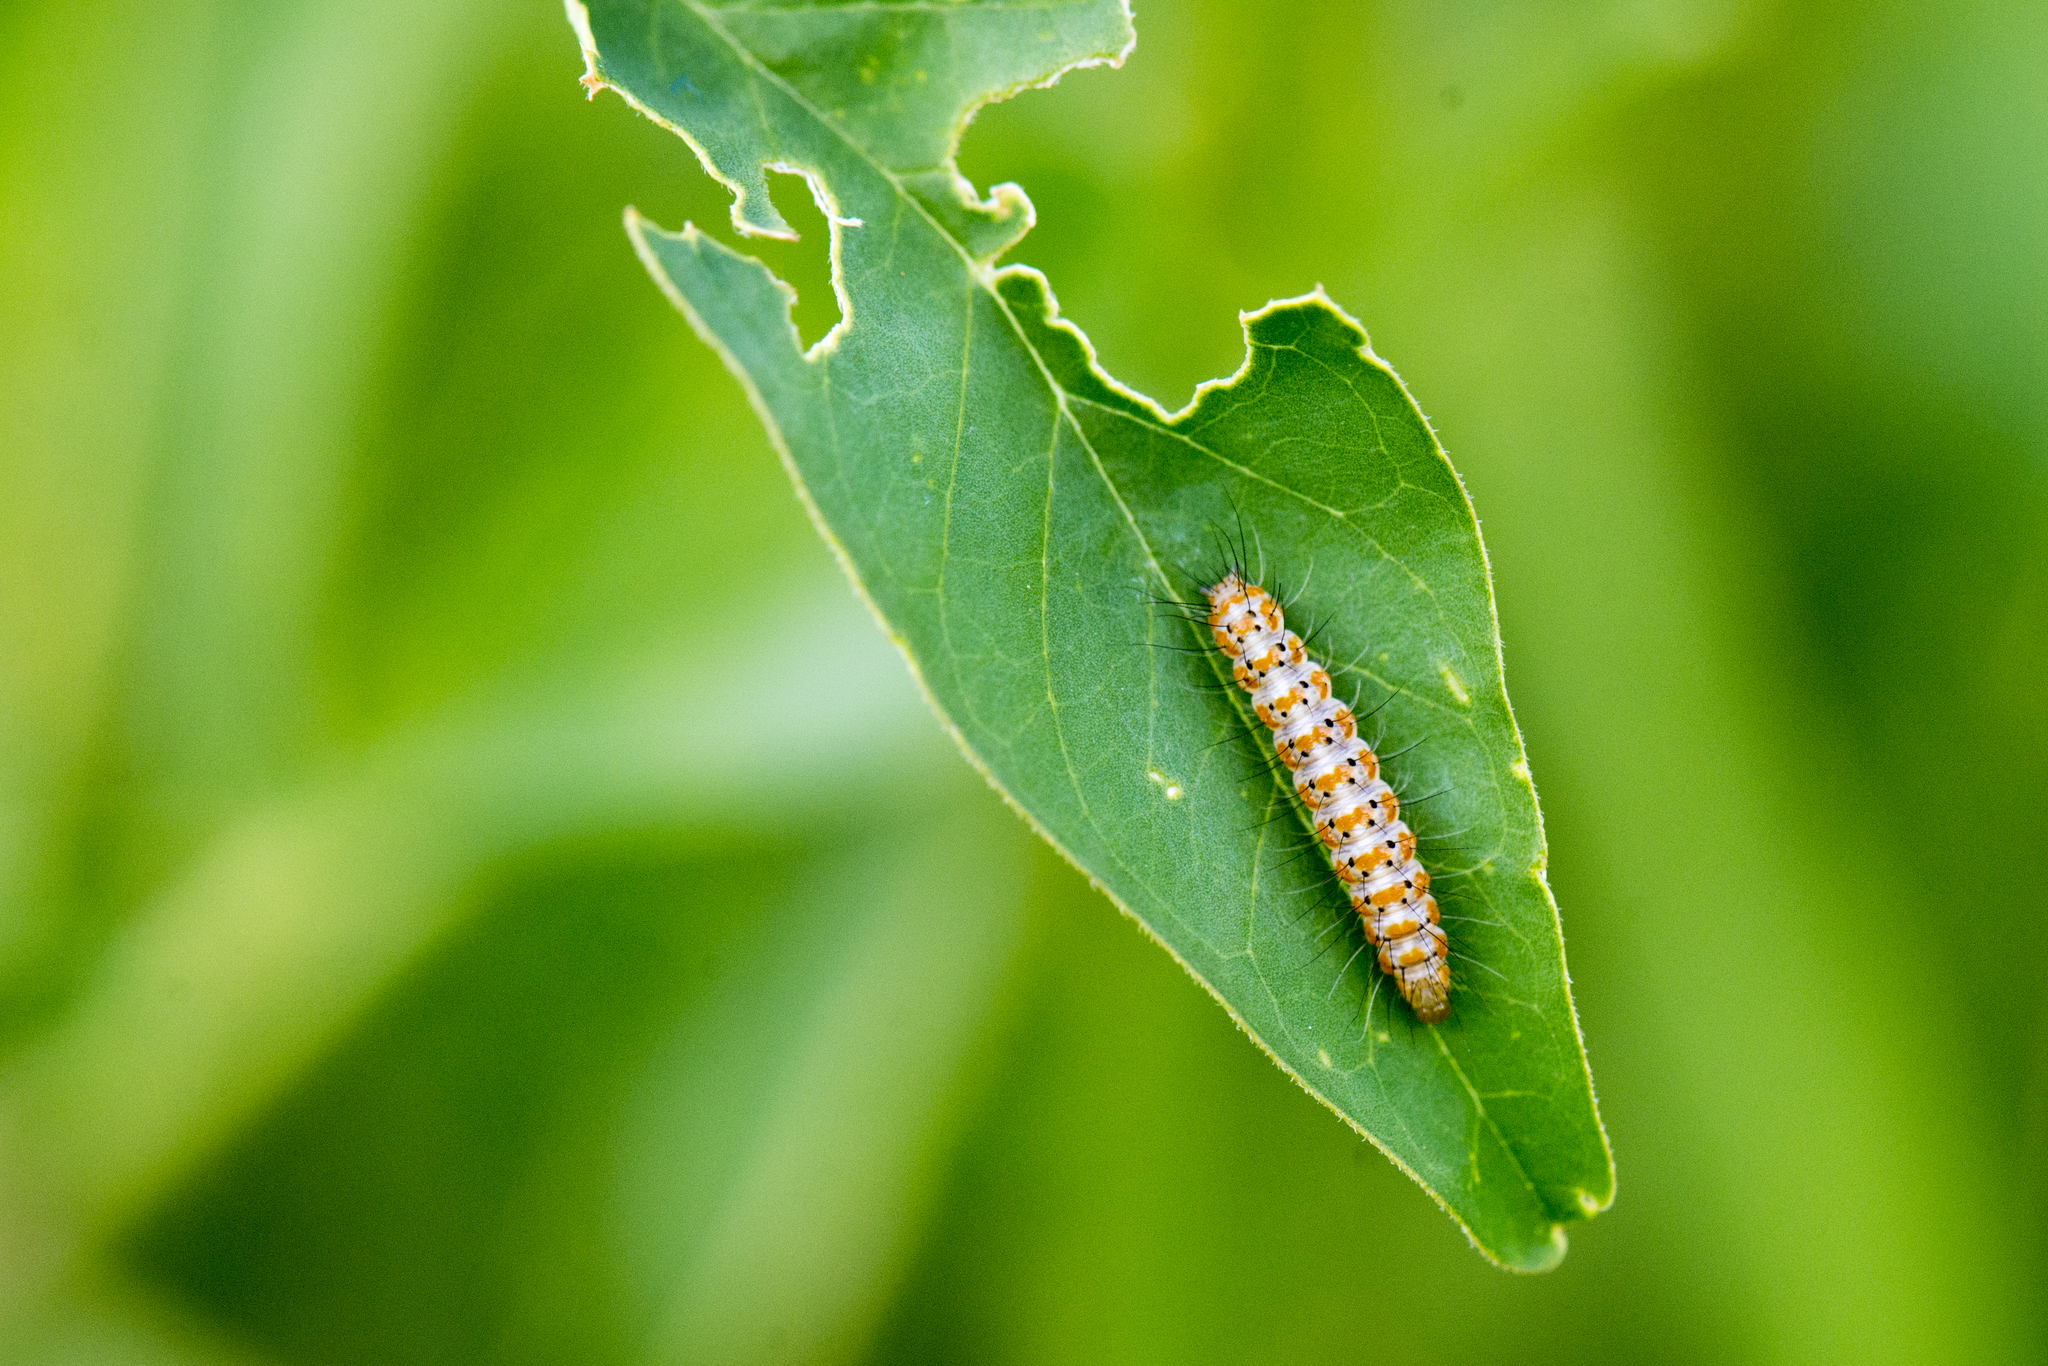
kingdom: Animalia
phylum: Arthropoda
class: Insecta
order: Lepidoptera
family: Erebidae
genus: Utetheisa
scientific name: Utetheisa lotrix
